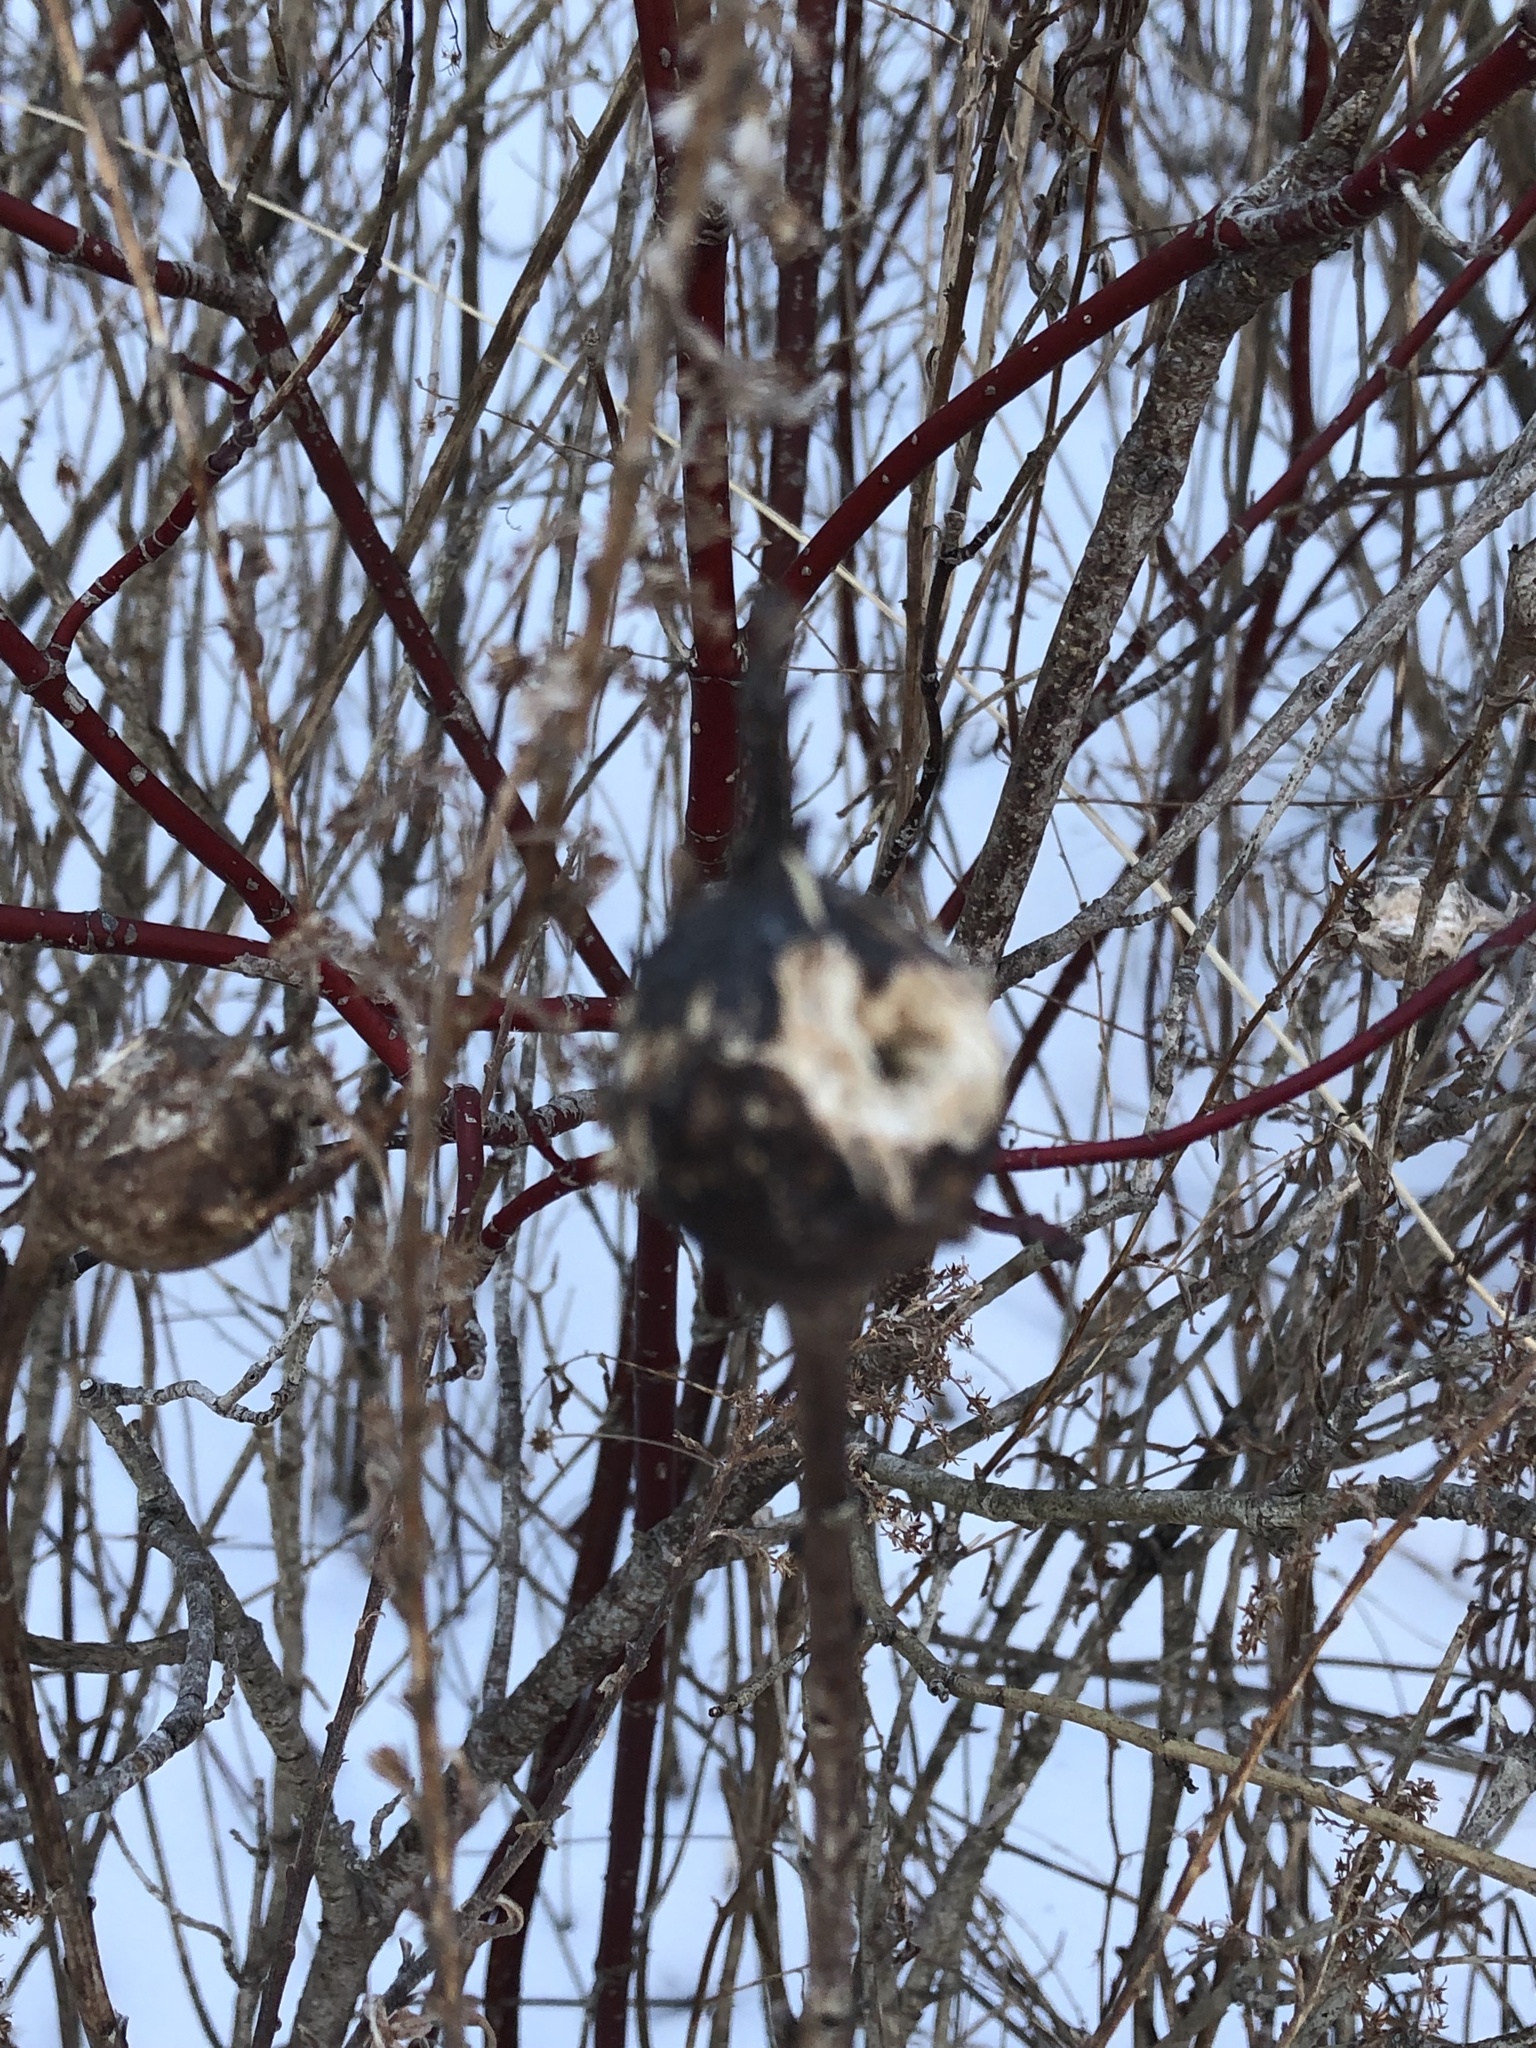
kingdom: Animalia
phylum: Arthropoda
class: Insecta
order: Diptera
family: Tephritidae
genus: Eurosta
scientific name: Eurosta solidaginis
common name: Goldenrod gall fly
